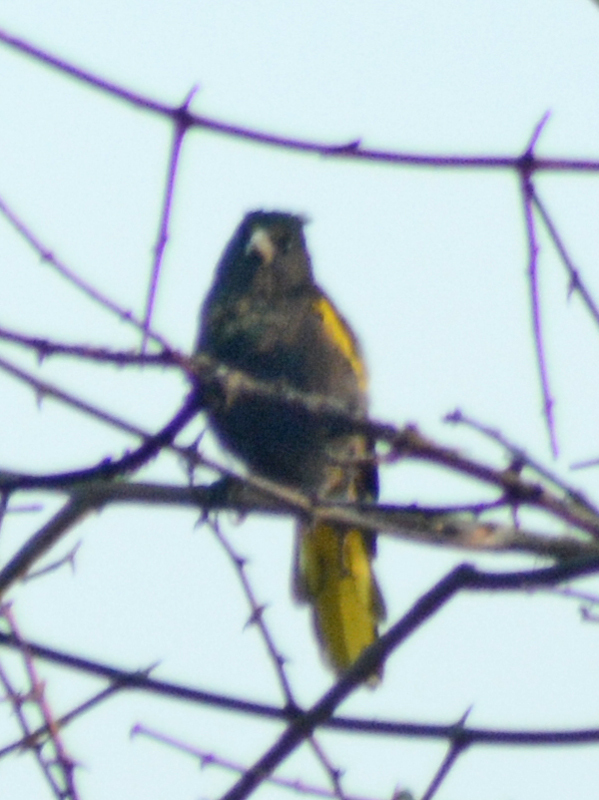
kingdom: Animalia
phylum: Chordata
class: Aves
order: Passeriformes
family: Icteridae
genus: Cacicus
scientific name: Cacicus melanicterus
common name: Yellow-winged cacique
